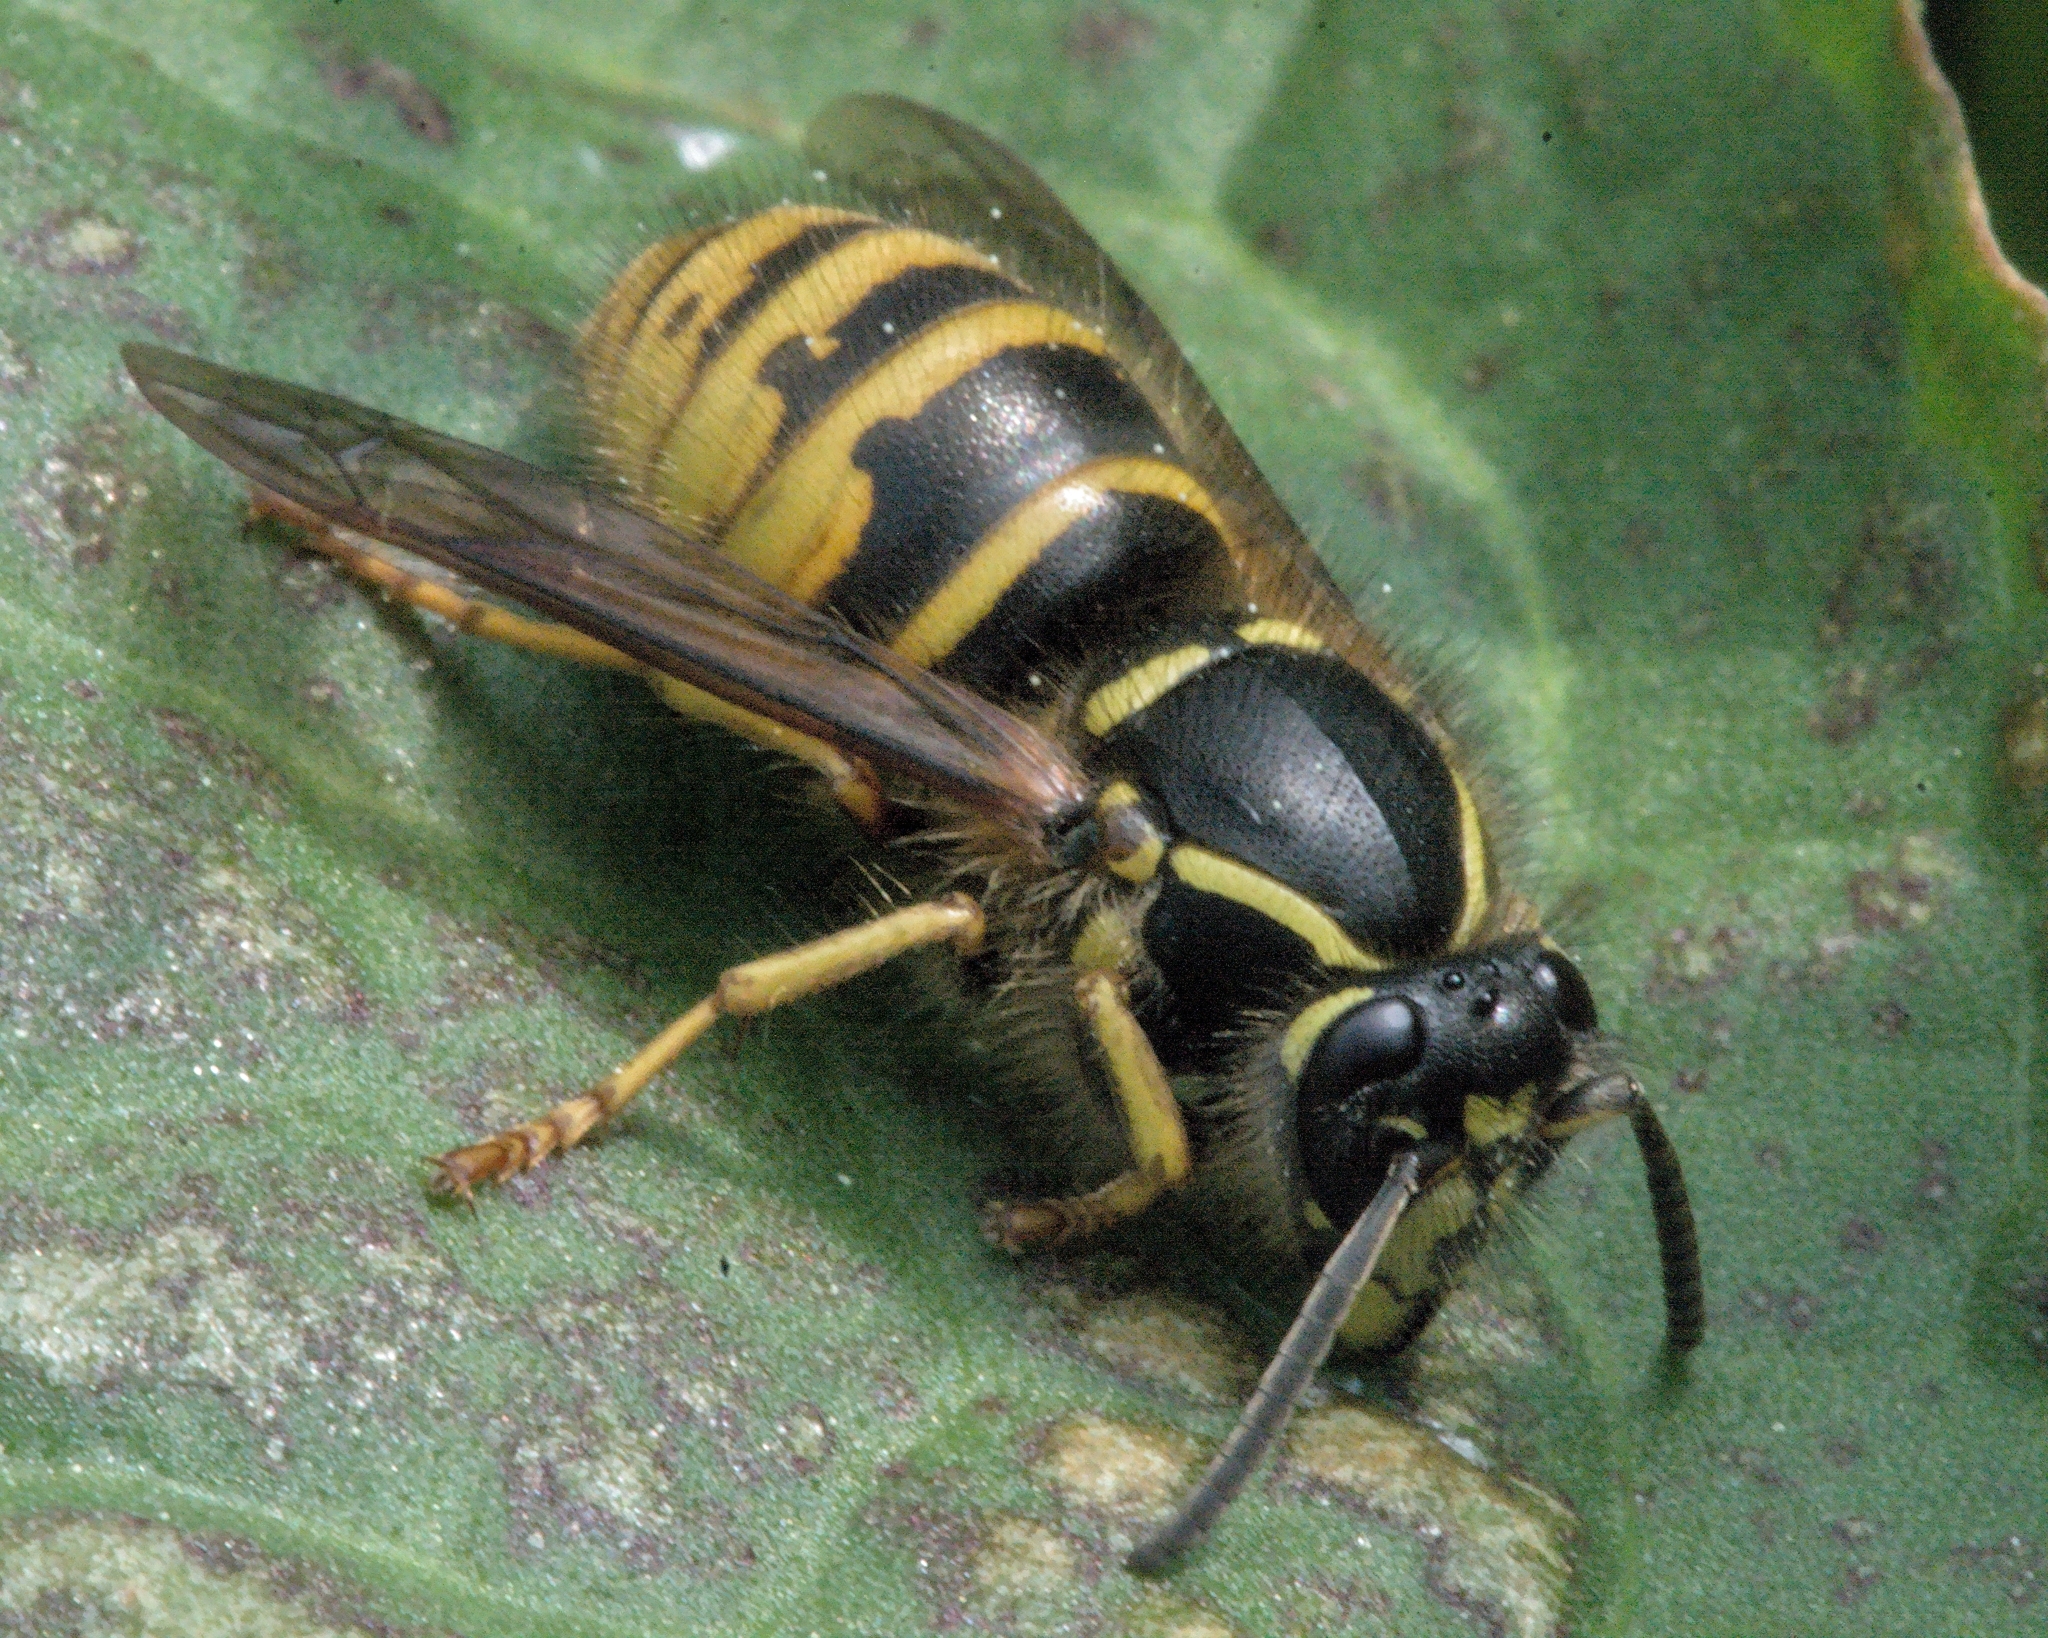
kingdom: Animalia
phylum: Arthropoda
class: Insecta
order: Hymenoptera
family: Vespidae
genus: Dolichovespula
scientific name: Dolichovespula saxonica
